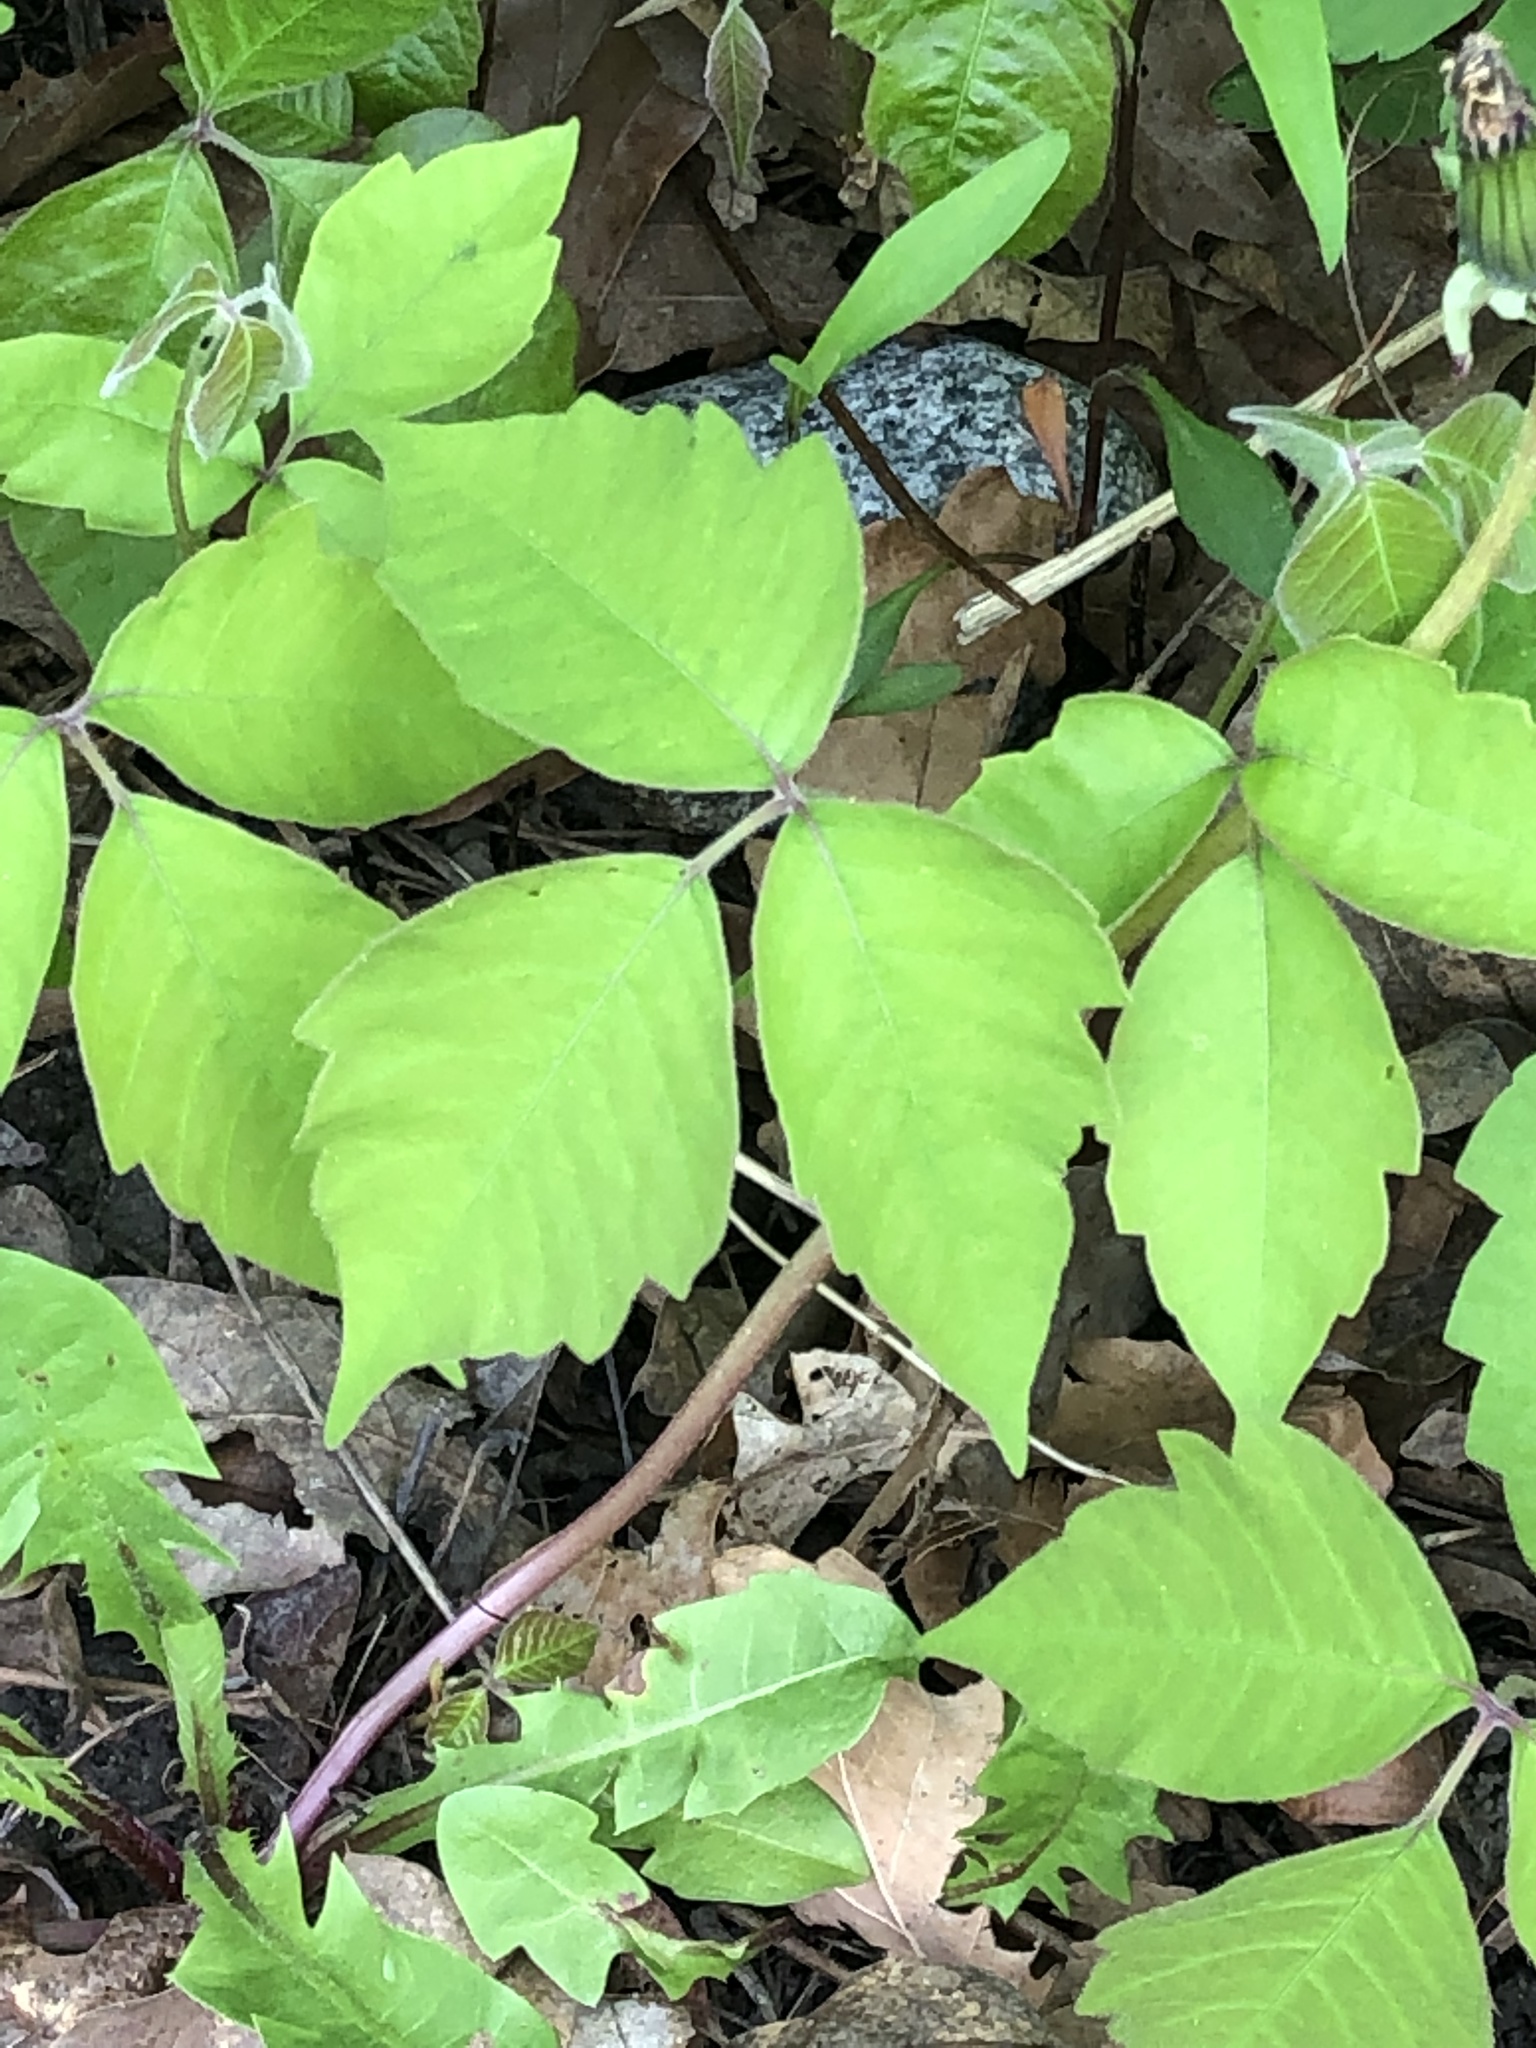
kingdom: Plantae
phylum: Tracheophyta
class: Magnoliopsida
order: Sapindales
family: Anacardiaceae
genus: Toxicodendron
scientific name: Toxicodendron radicans
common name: Poison ivy
